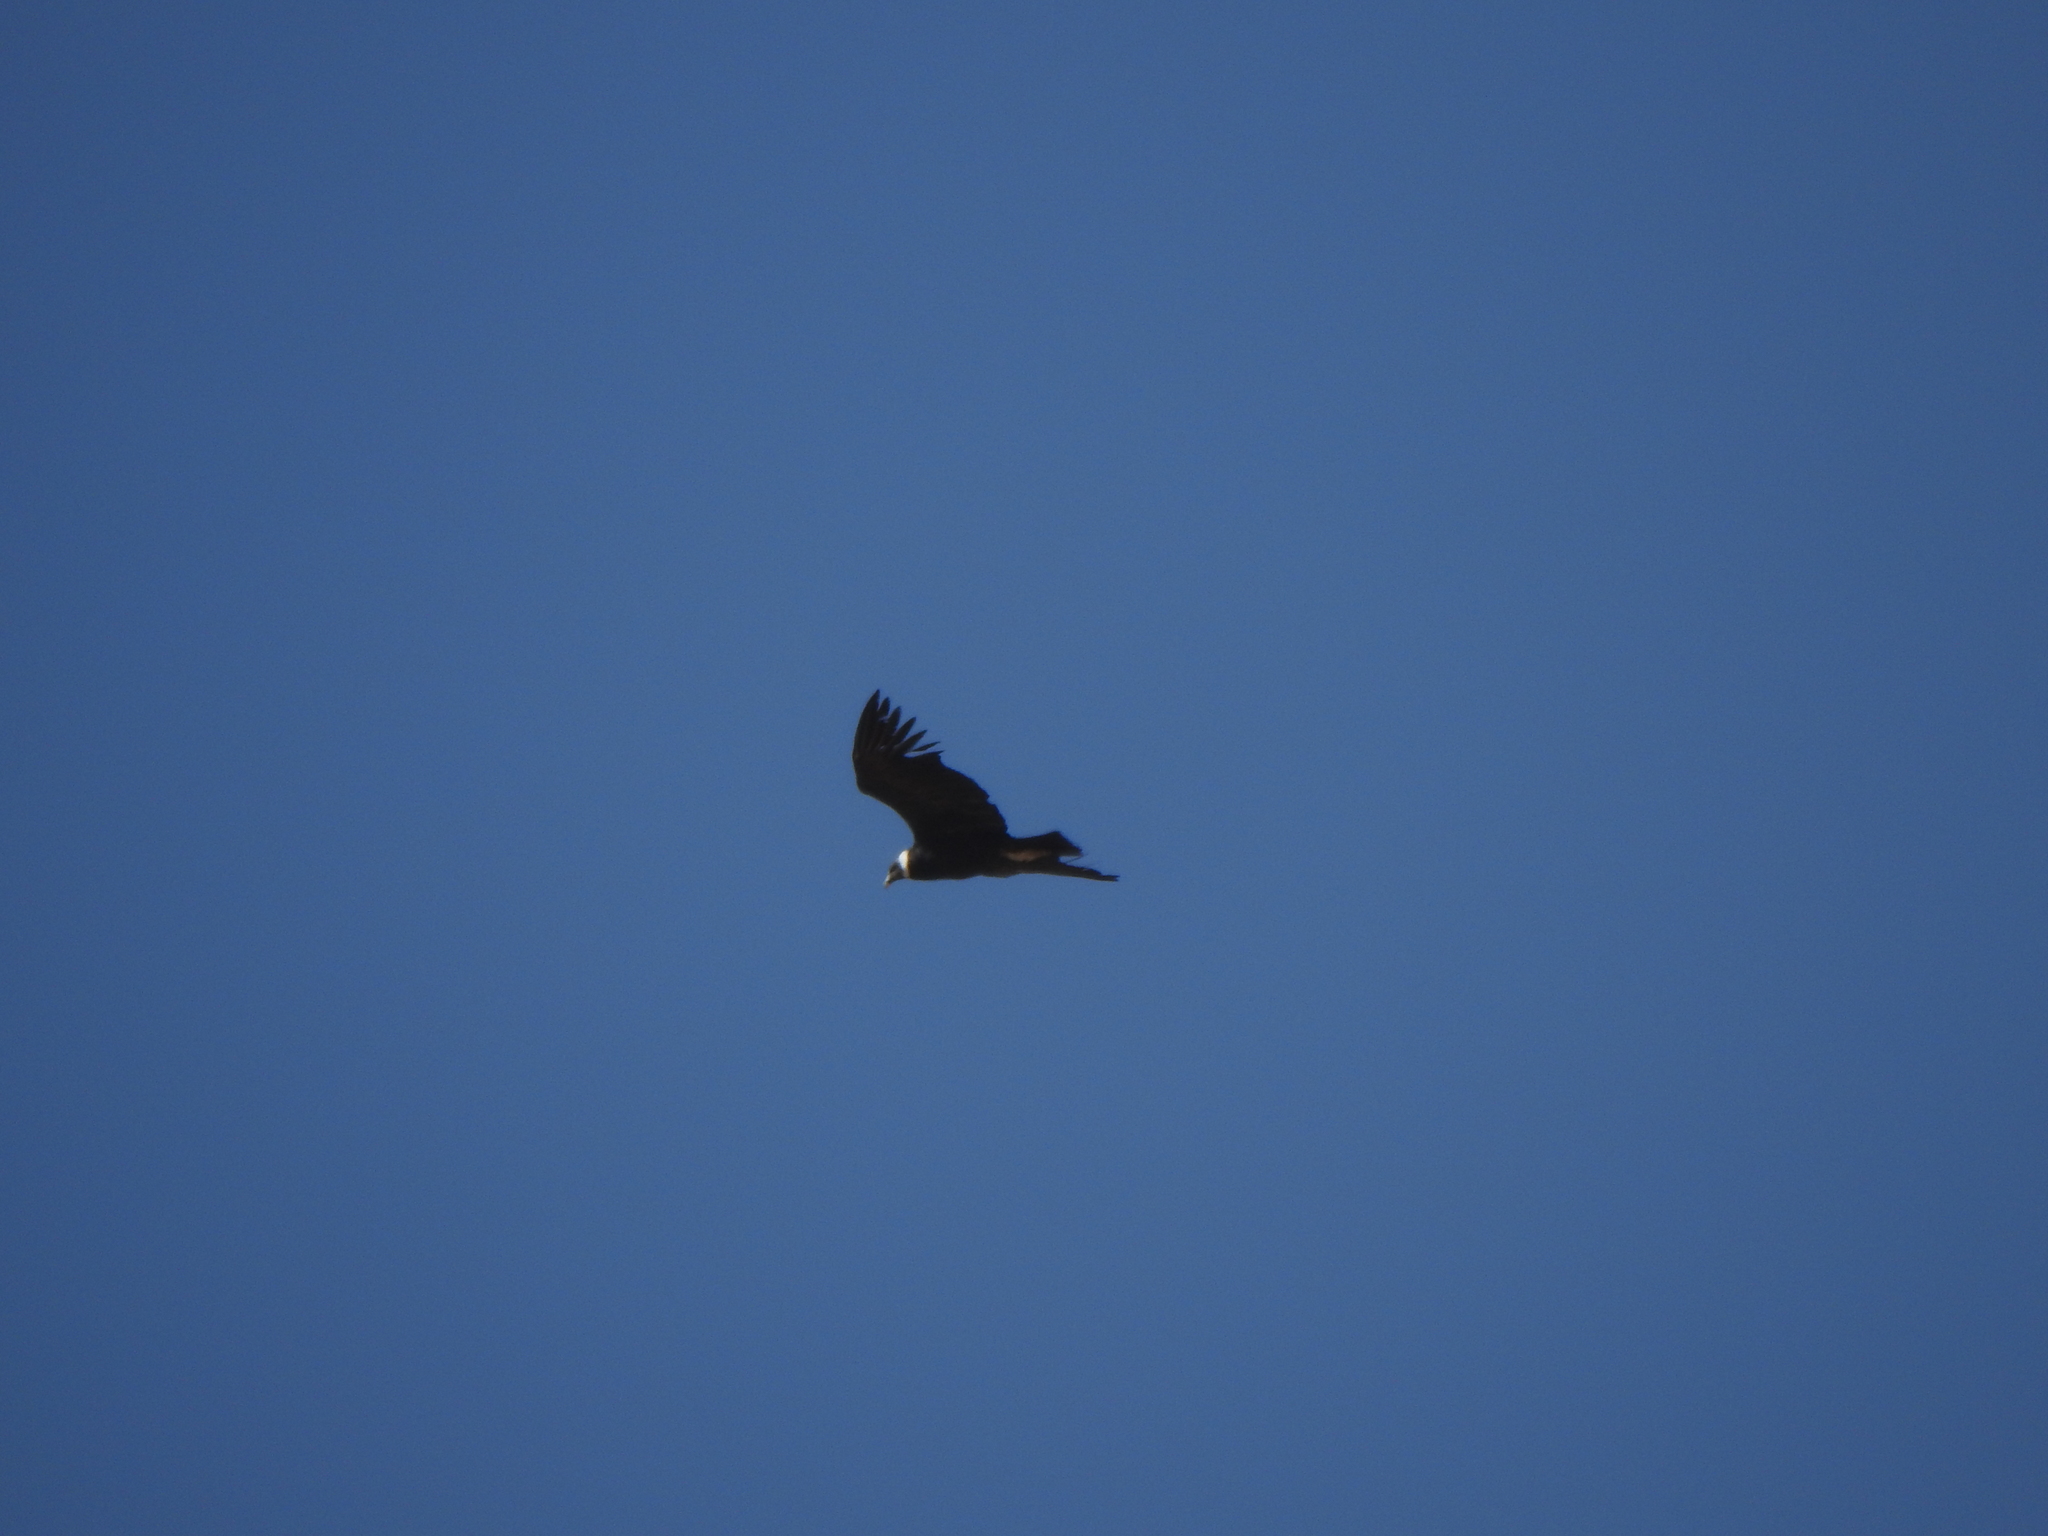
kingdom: Animalia
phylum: Chordata
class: Aves
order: Accipitriformes
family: Cathartidae
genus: Vultur
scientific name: Vultur gryphus
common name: Andean condor
